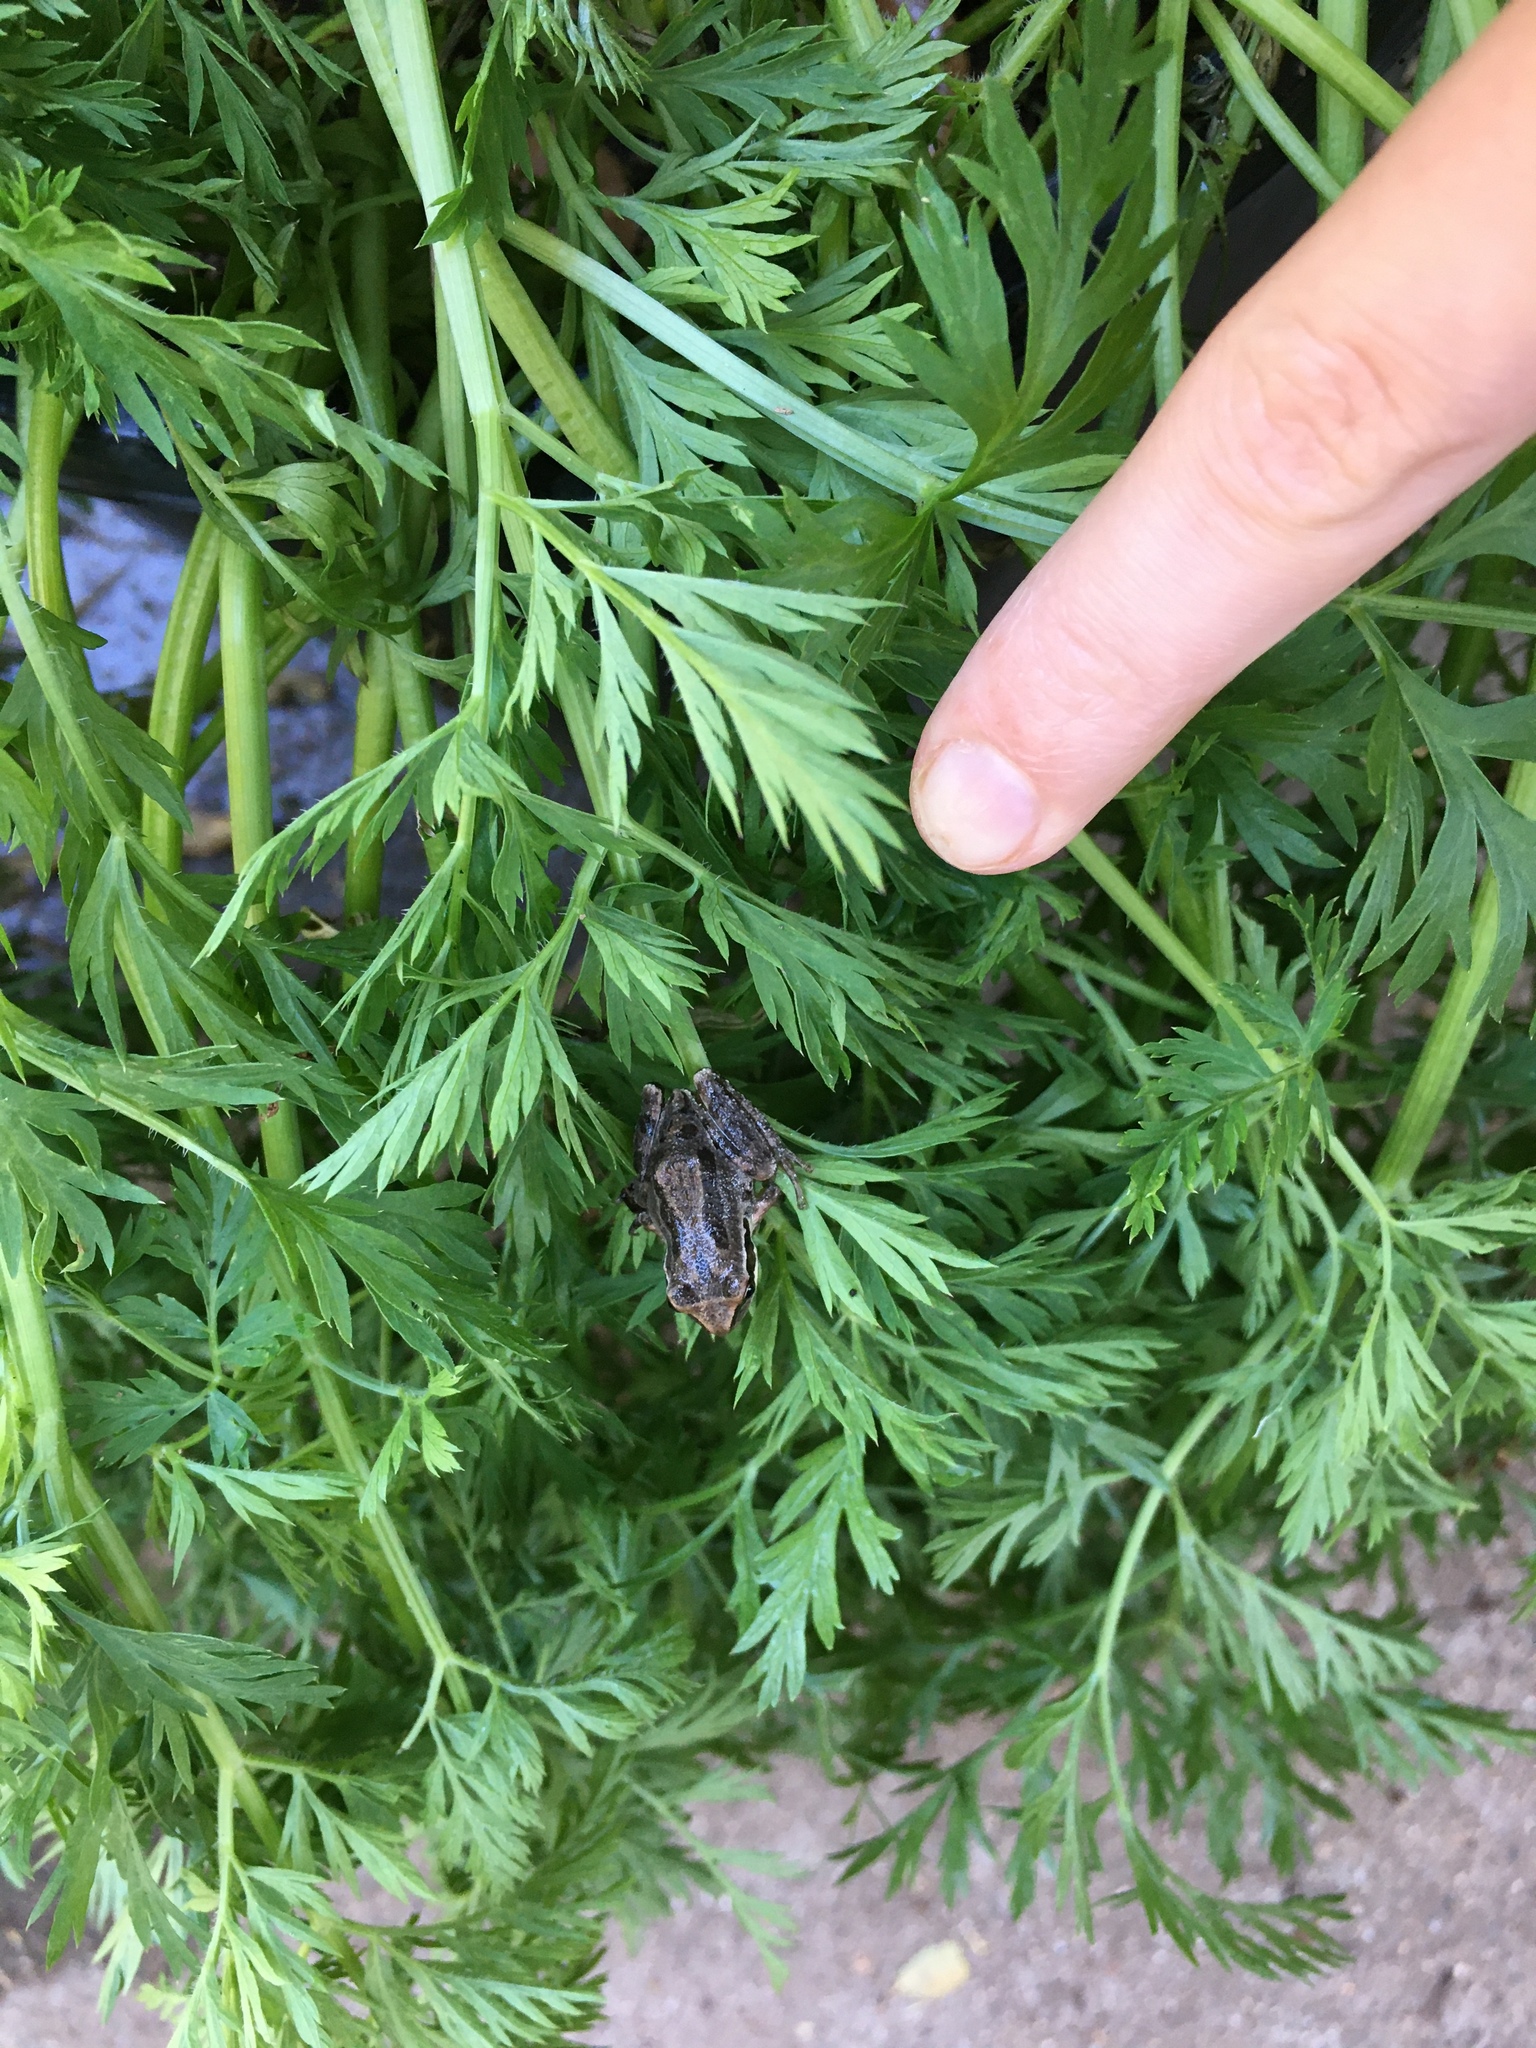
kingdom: Animalia
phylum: Chordata
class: Amphibia
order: Anura
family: Hylidae
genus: Pseudacris
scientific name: Pseudacris regilla
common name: Pacific chorus frog
